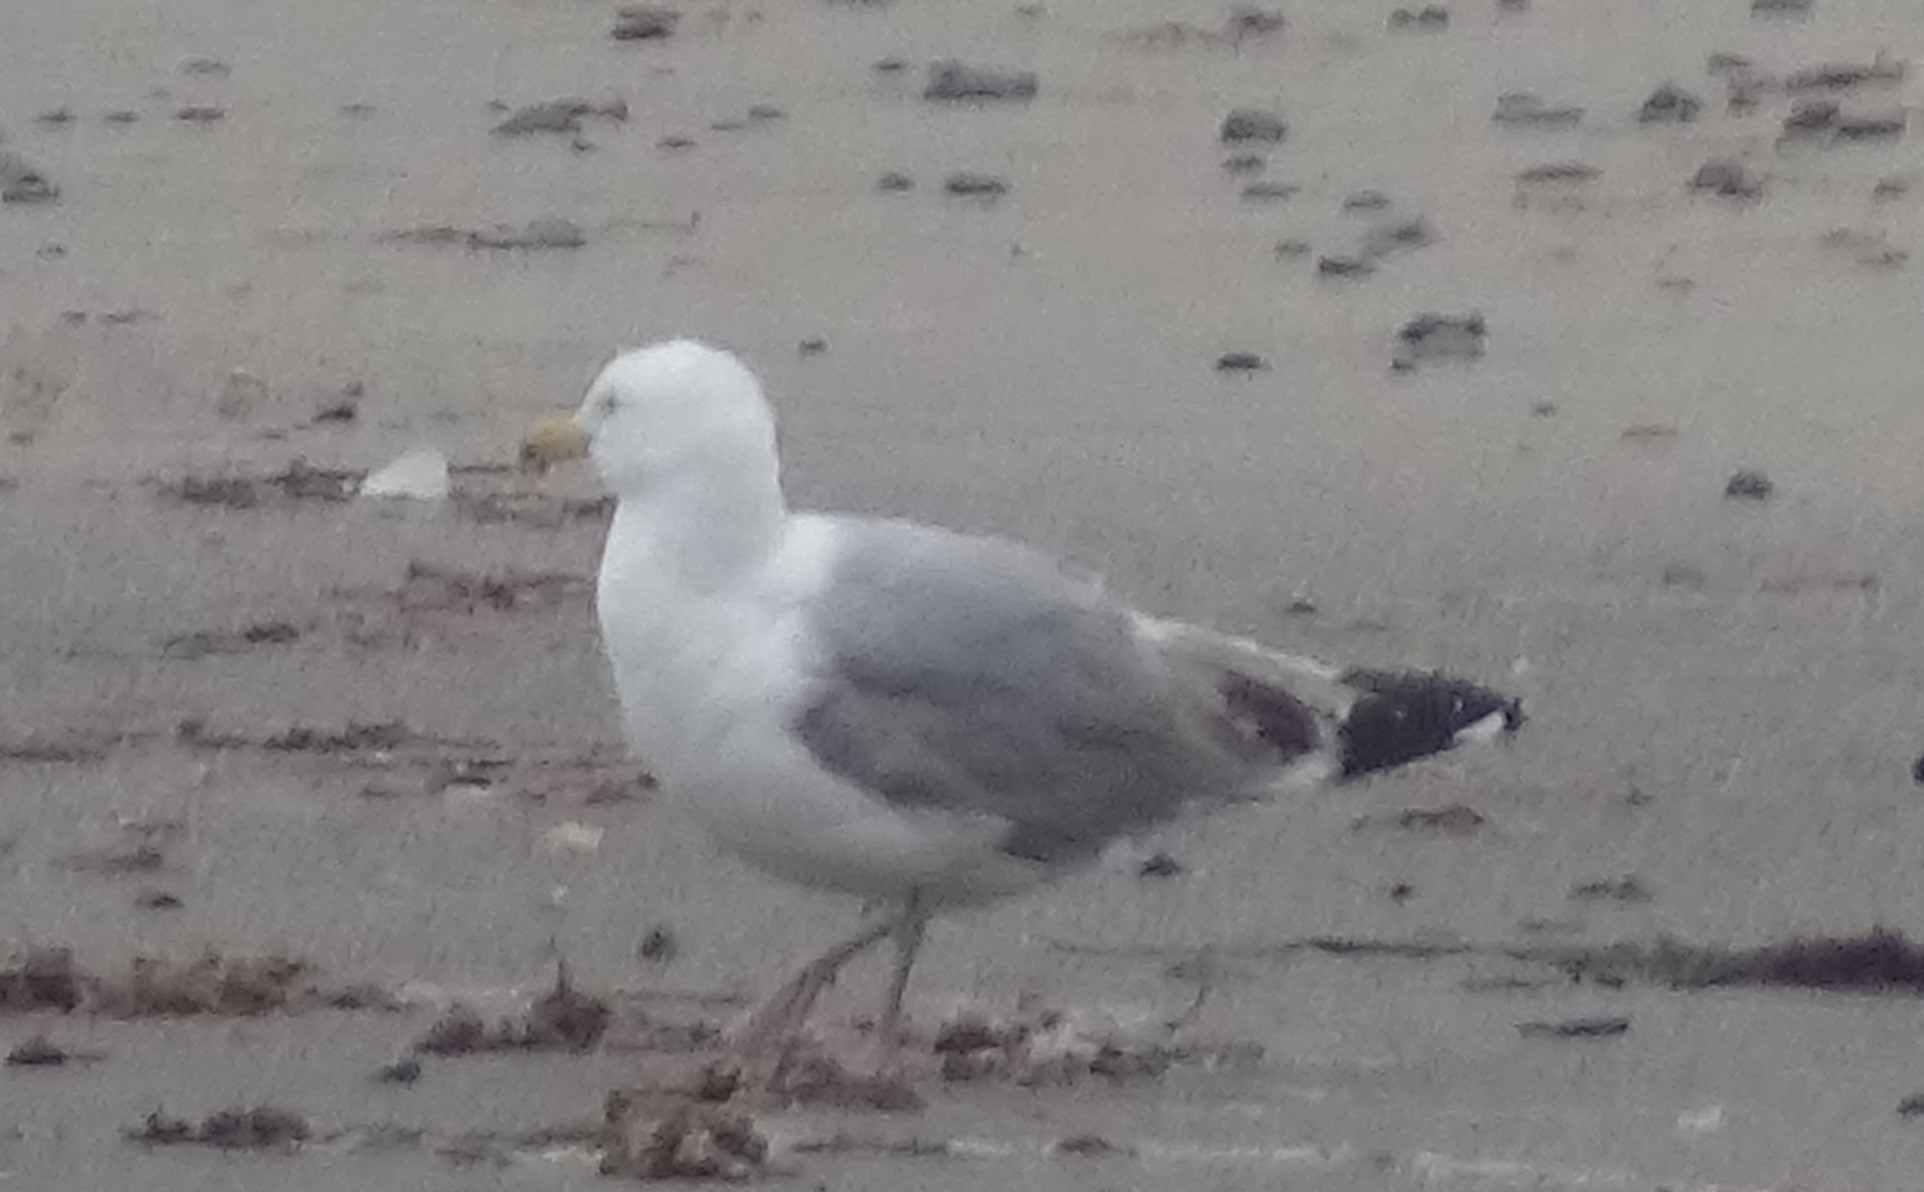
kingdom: Animalia
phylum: Chordata
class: Aves
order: Charadriiformes
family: Laridae
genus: Larus
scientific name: Larus argentatus
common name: Herring gull
